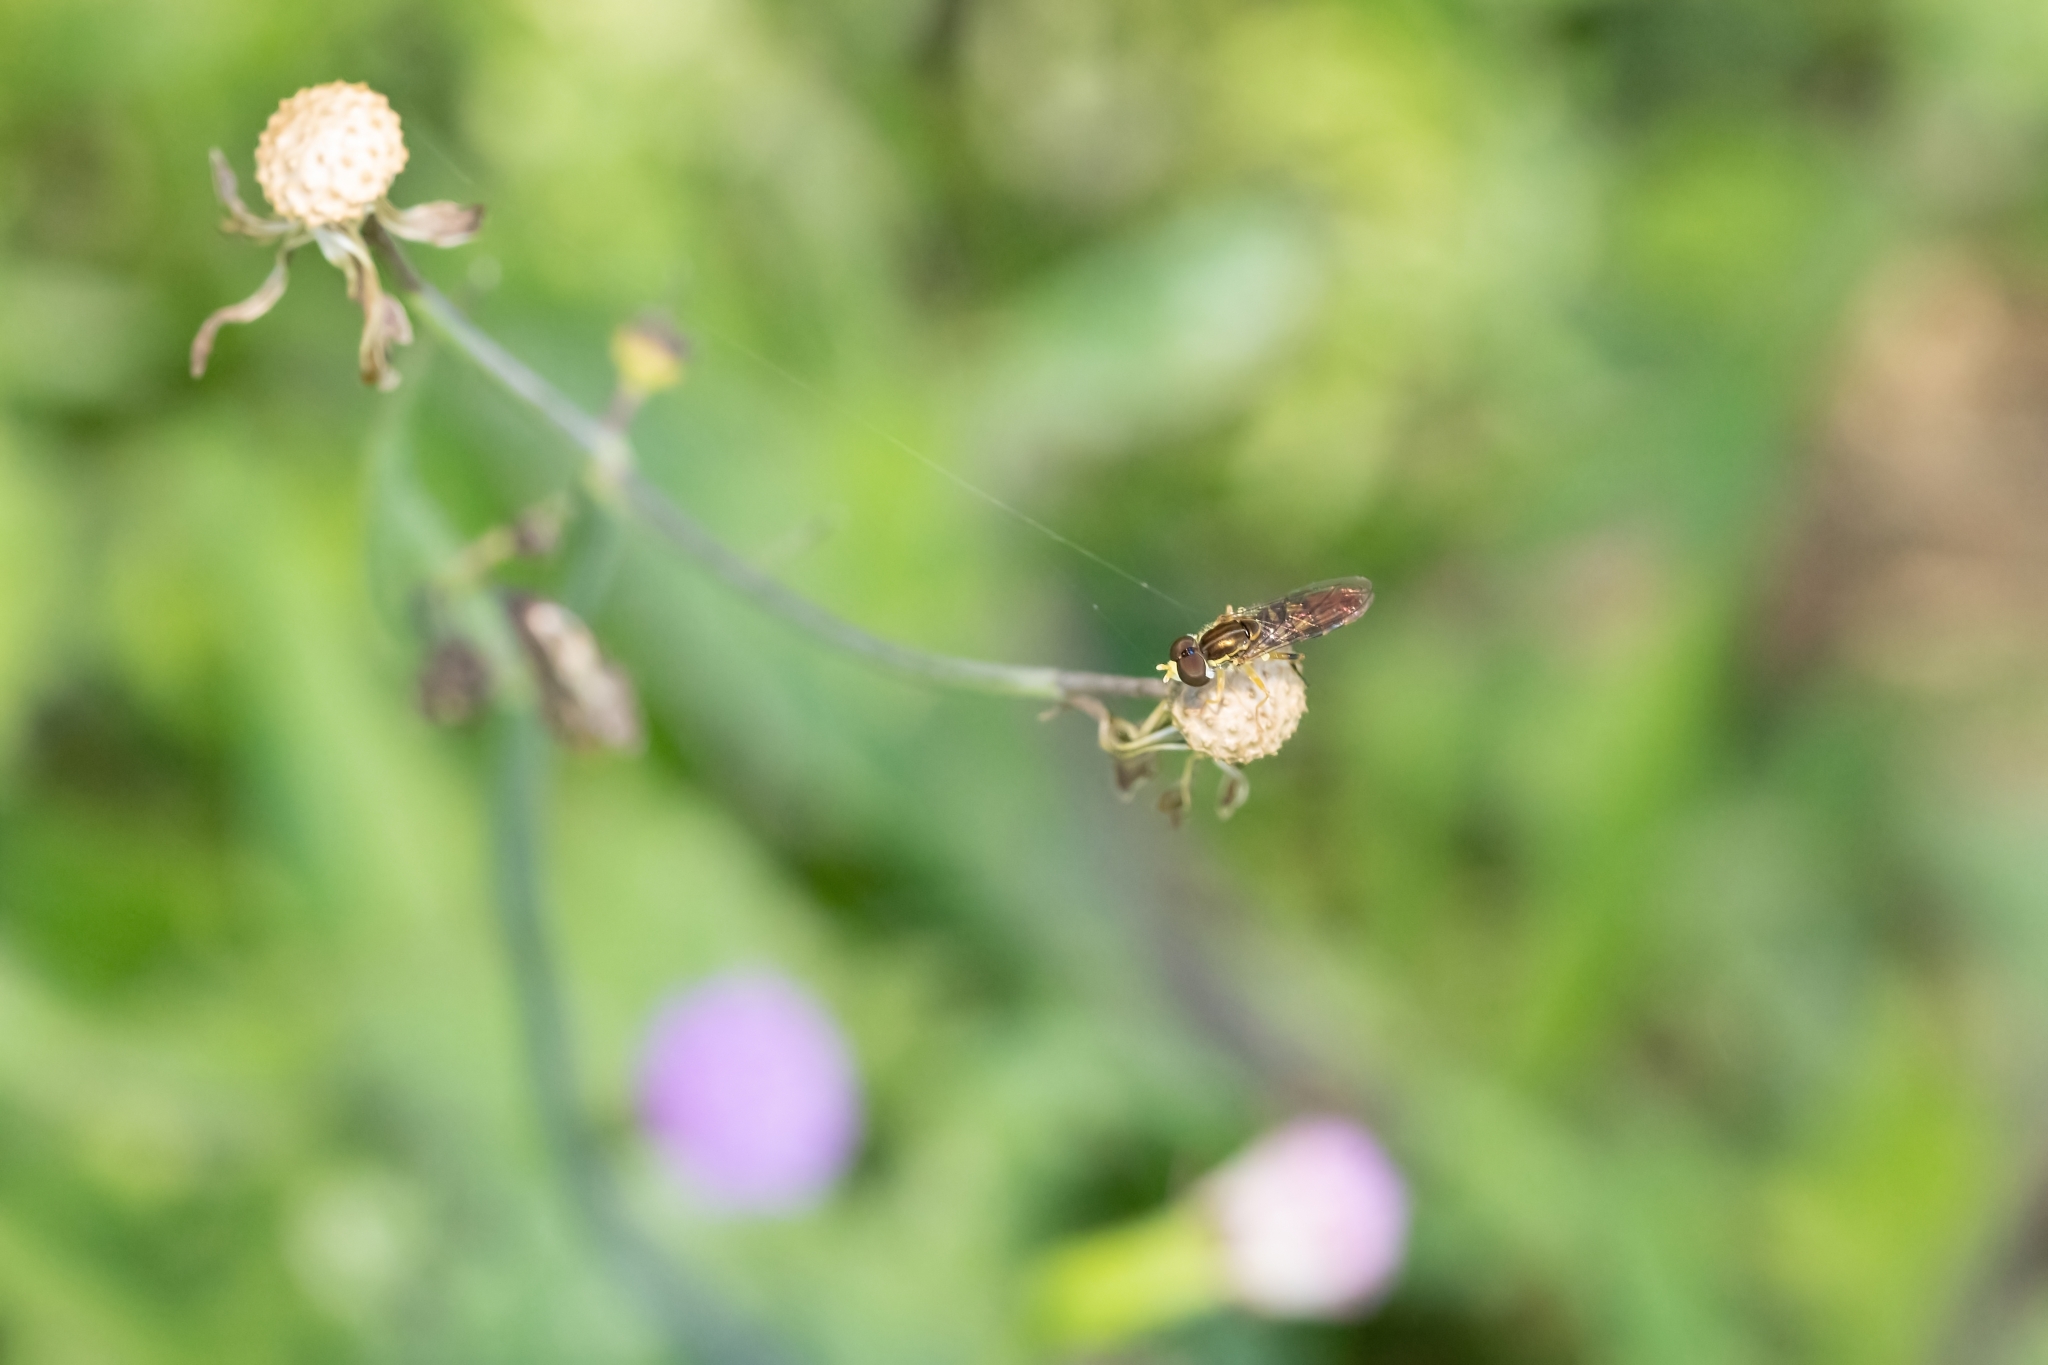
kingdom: Animalia
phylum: Arthropoda
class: Insecta
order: Diptera
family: Syrphidae
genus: Toxomerus
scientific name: Toxomerus floralis
